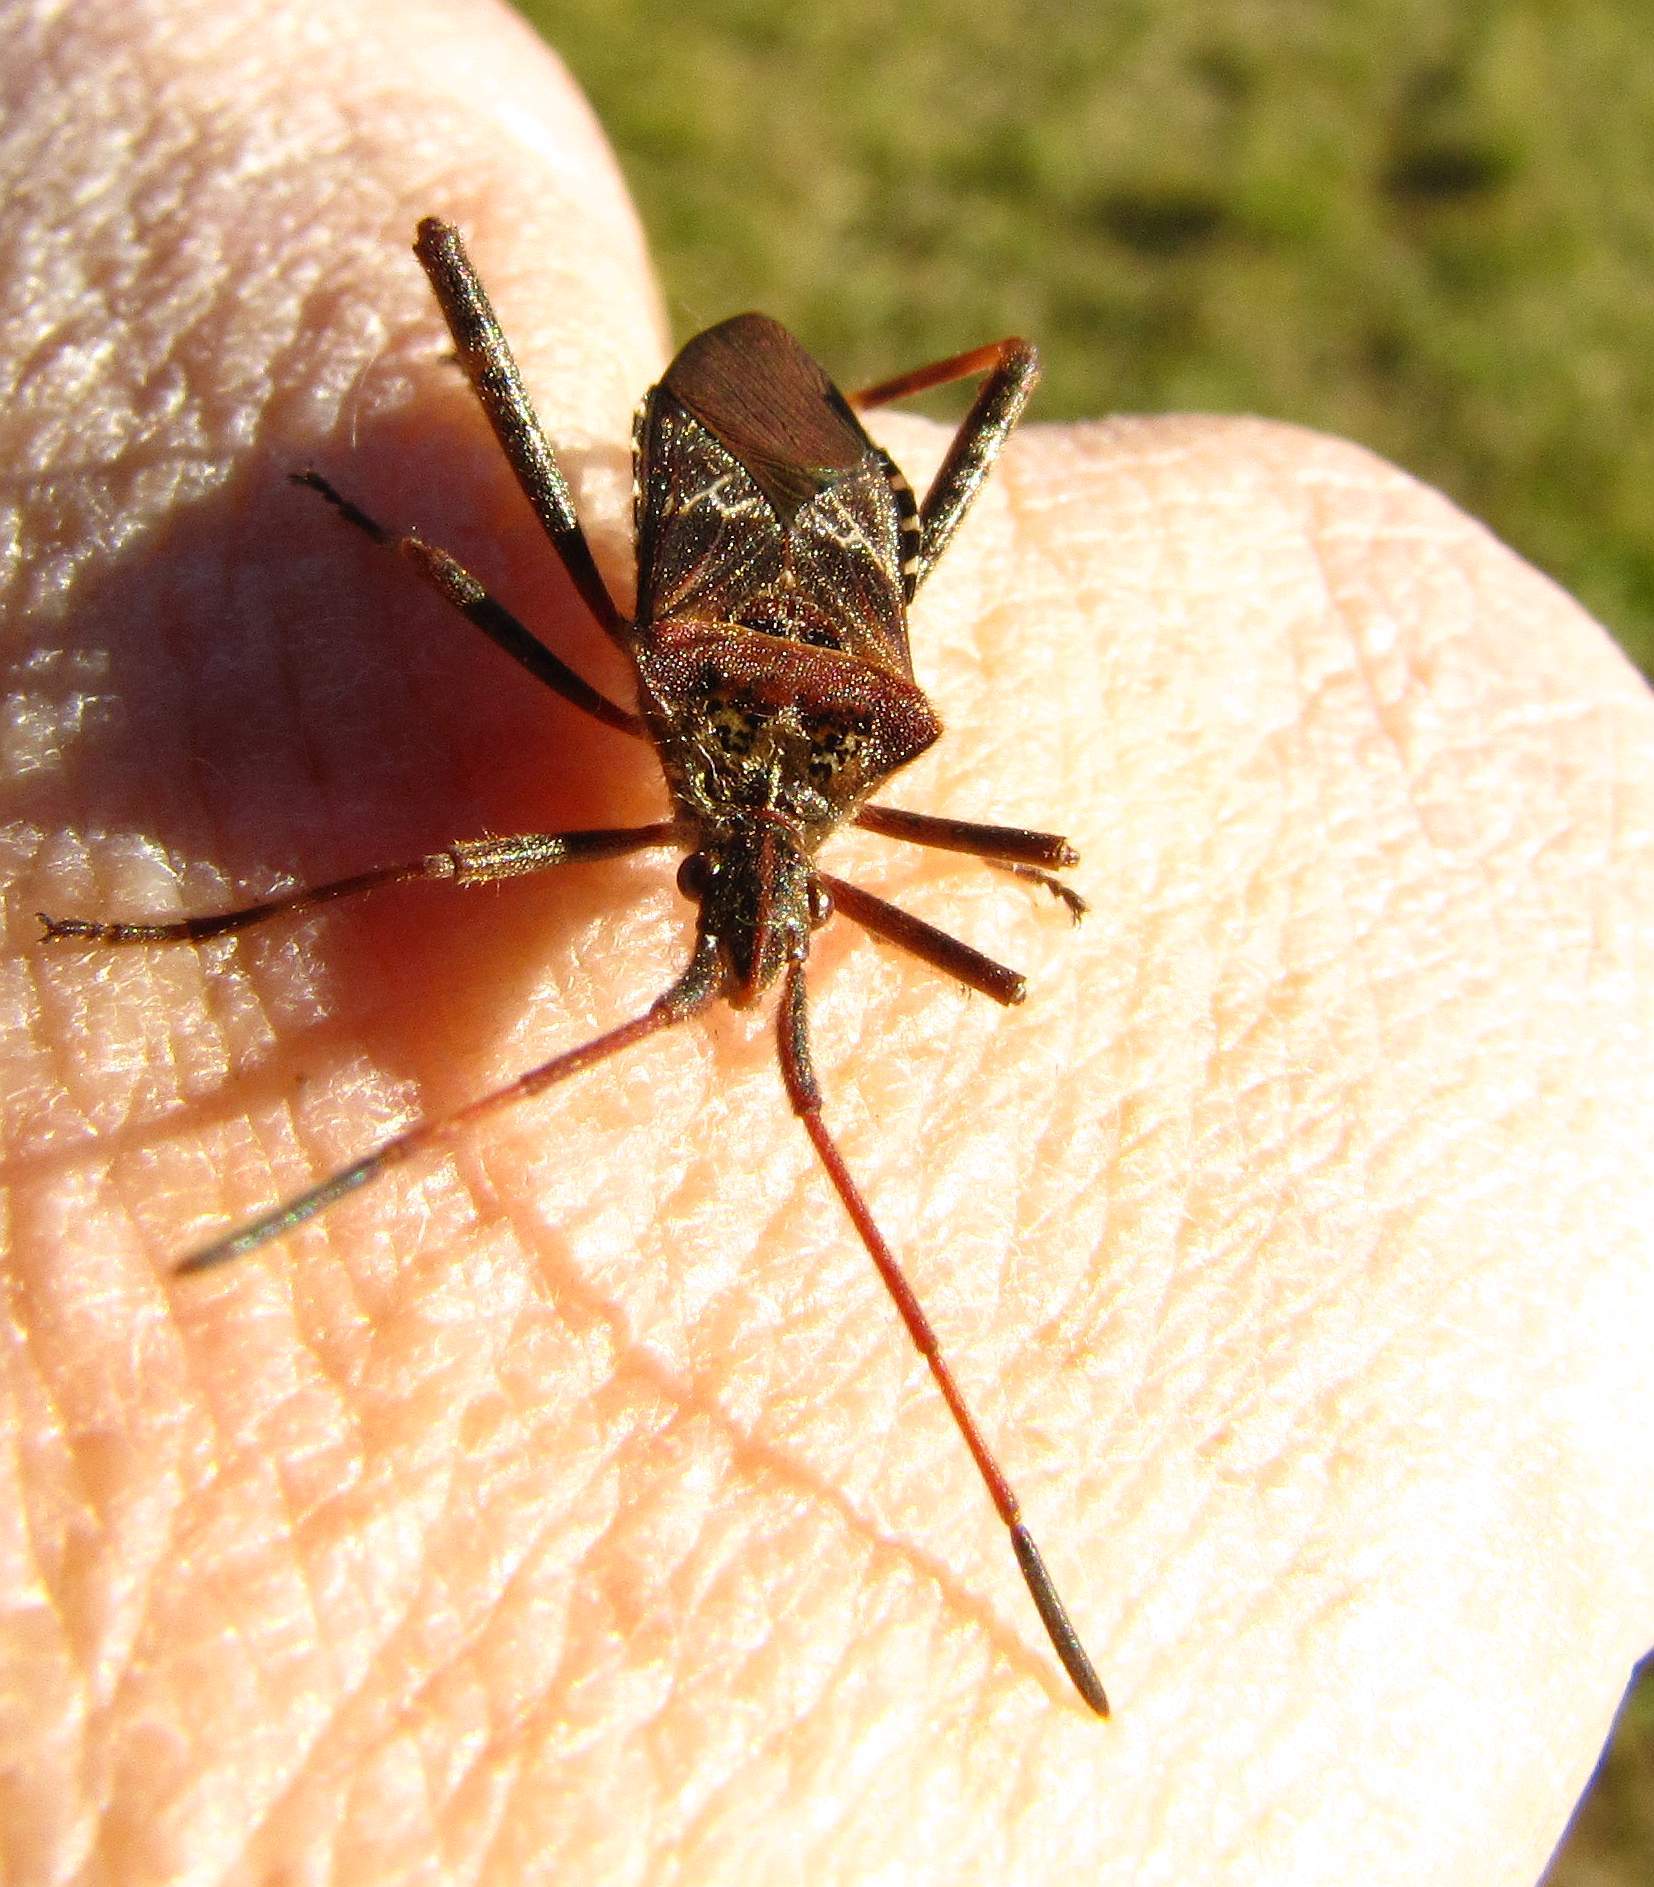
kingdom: Animalia
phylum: Arthropoda
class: Insecta
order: Hemiptera
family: Coreidae
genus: Leptoglossus
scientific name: Leptoglossus occidentalis
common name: Western conifer-seed bug
